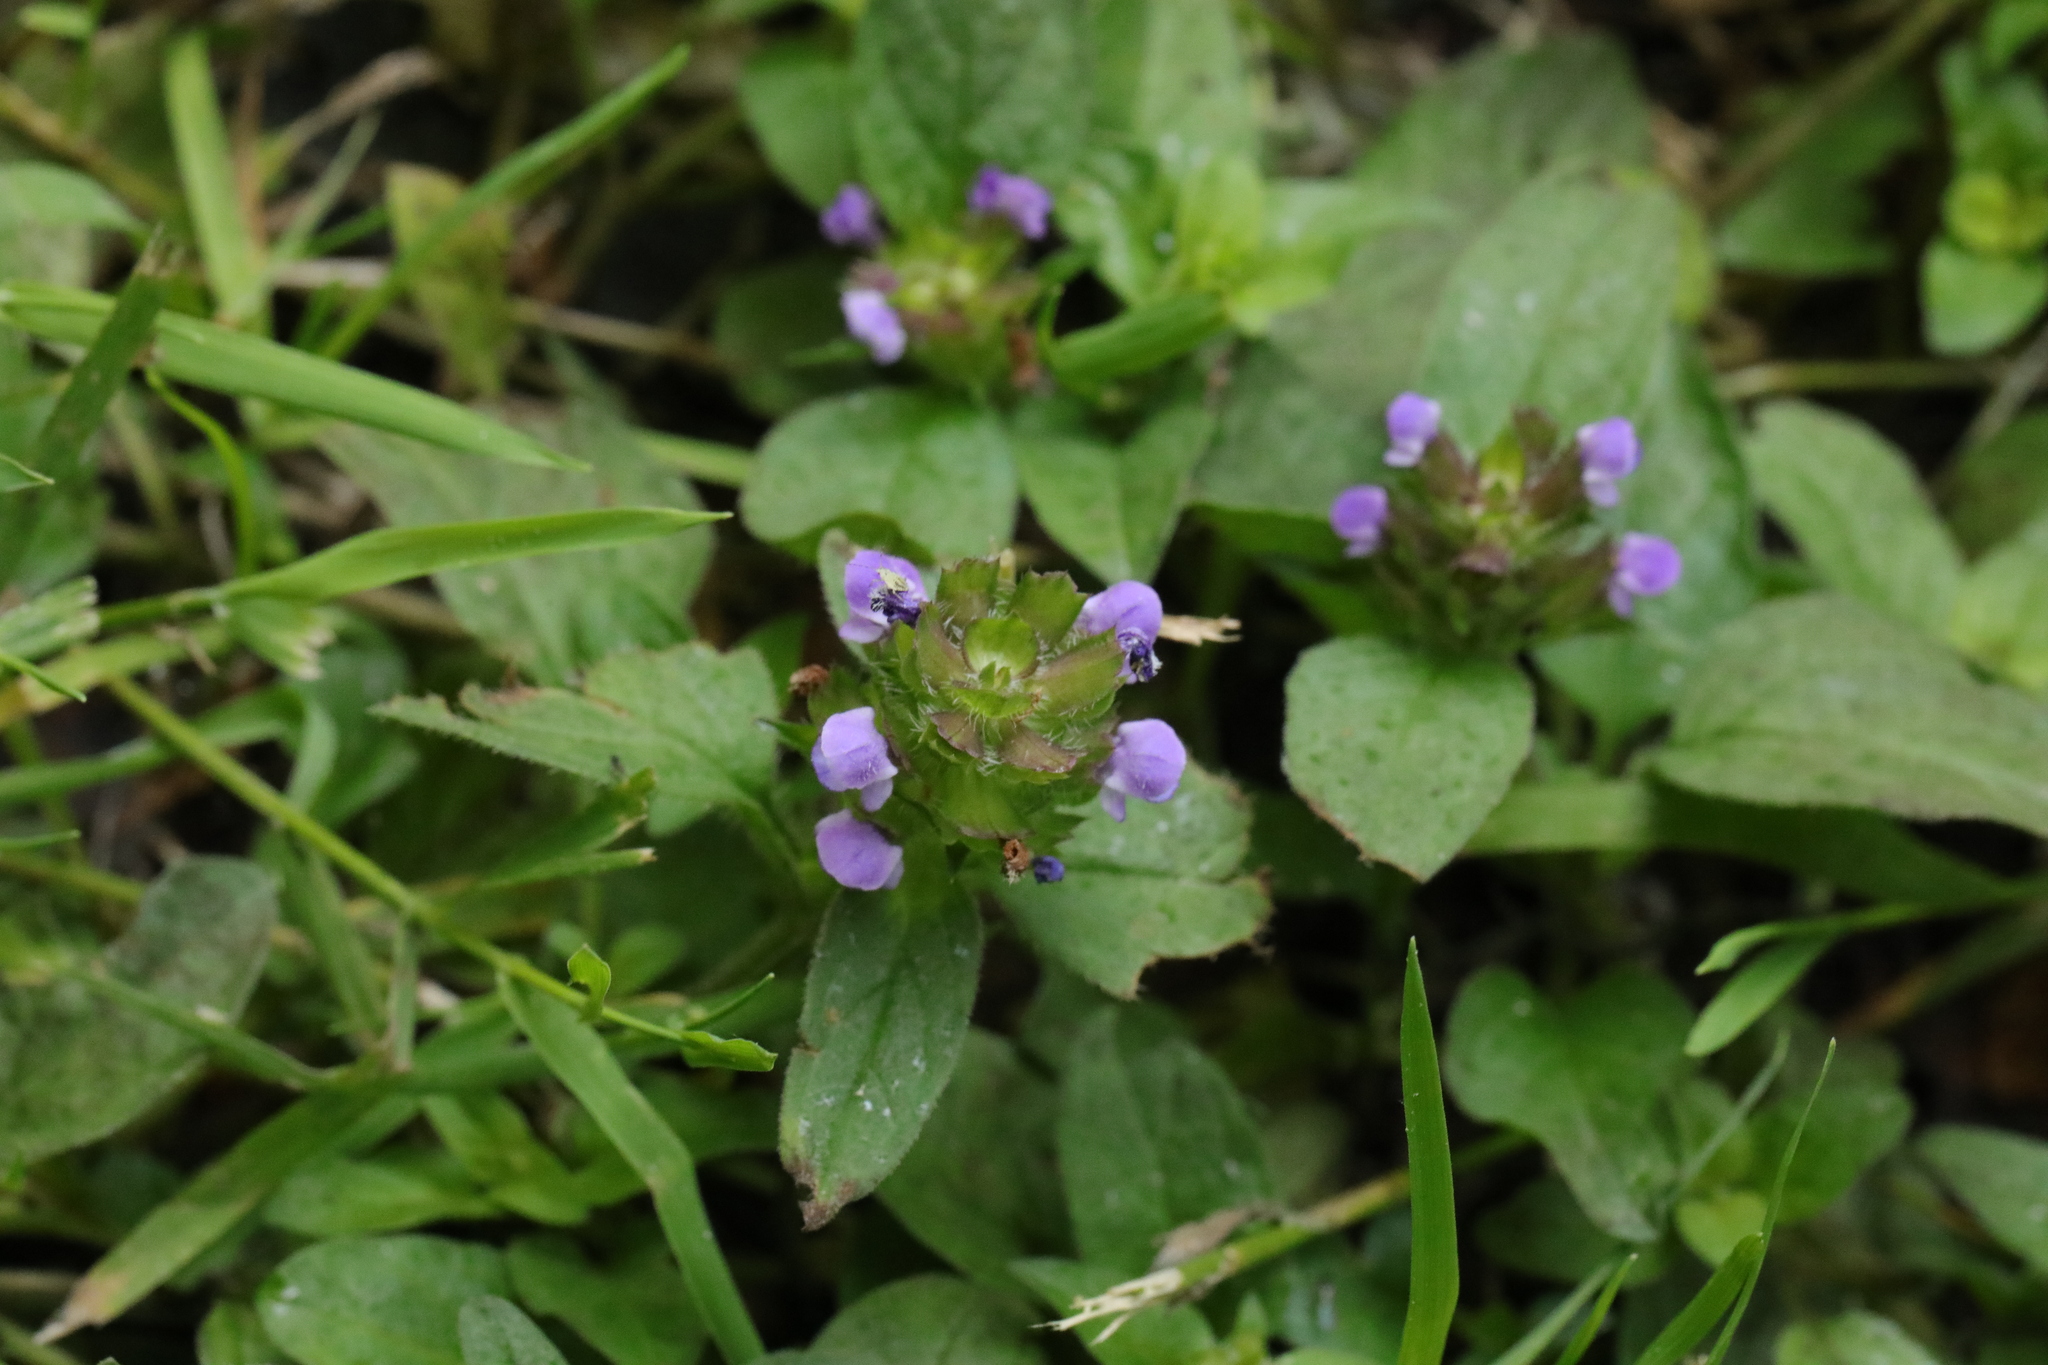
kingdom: Plantae
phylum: Tracheophyta
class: Magnoliopsida
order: Lamiales
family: Lamiaceae
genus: Prunella
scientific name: Prunella vulgaris
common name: Heal-all
